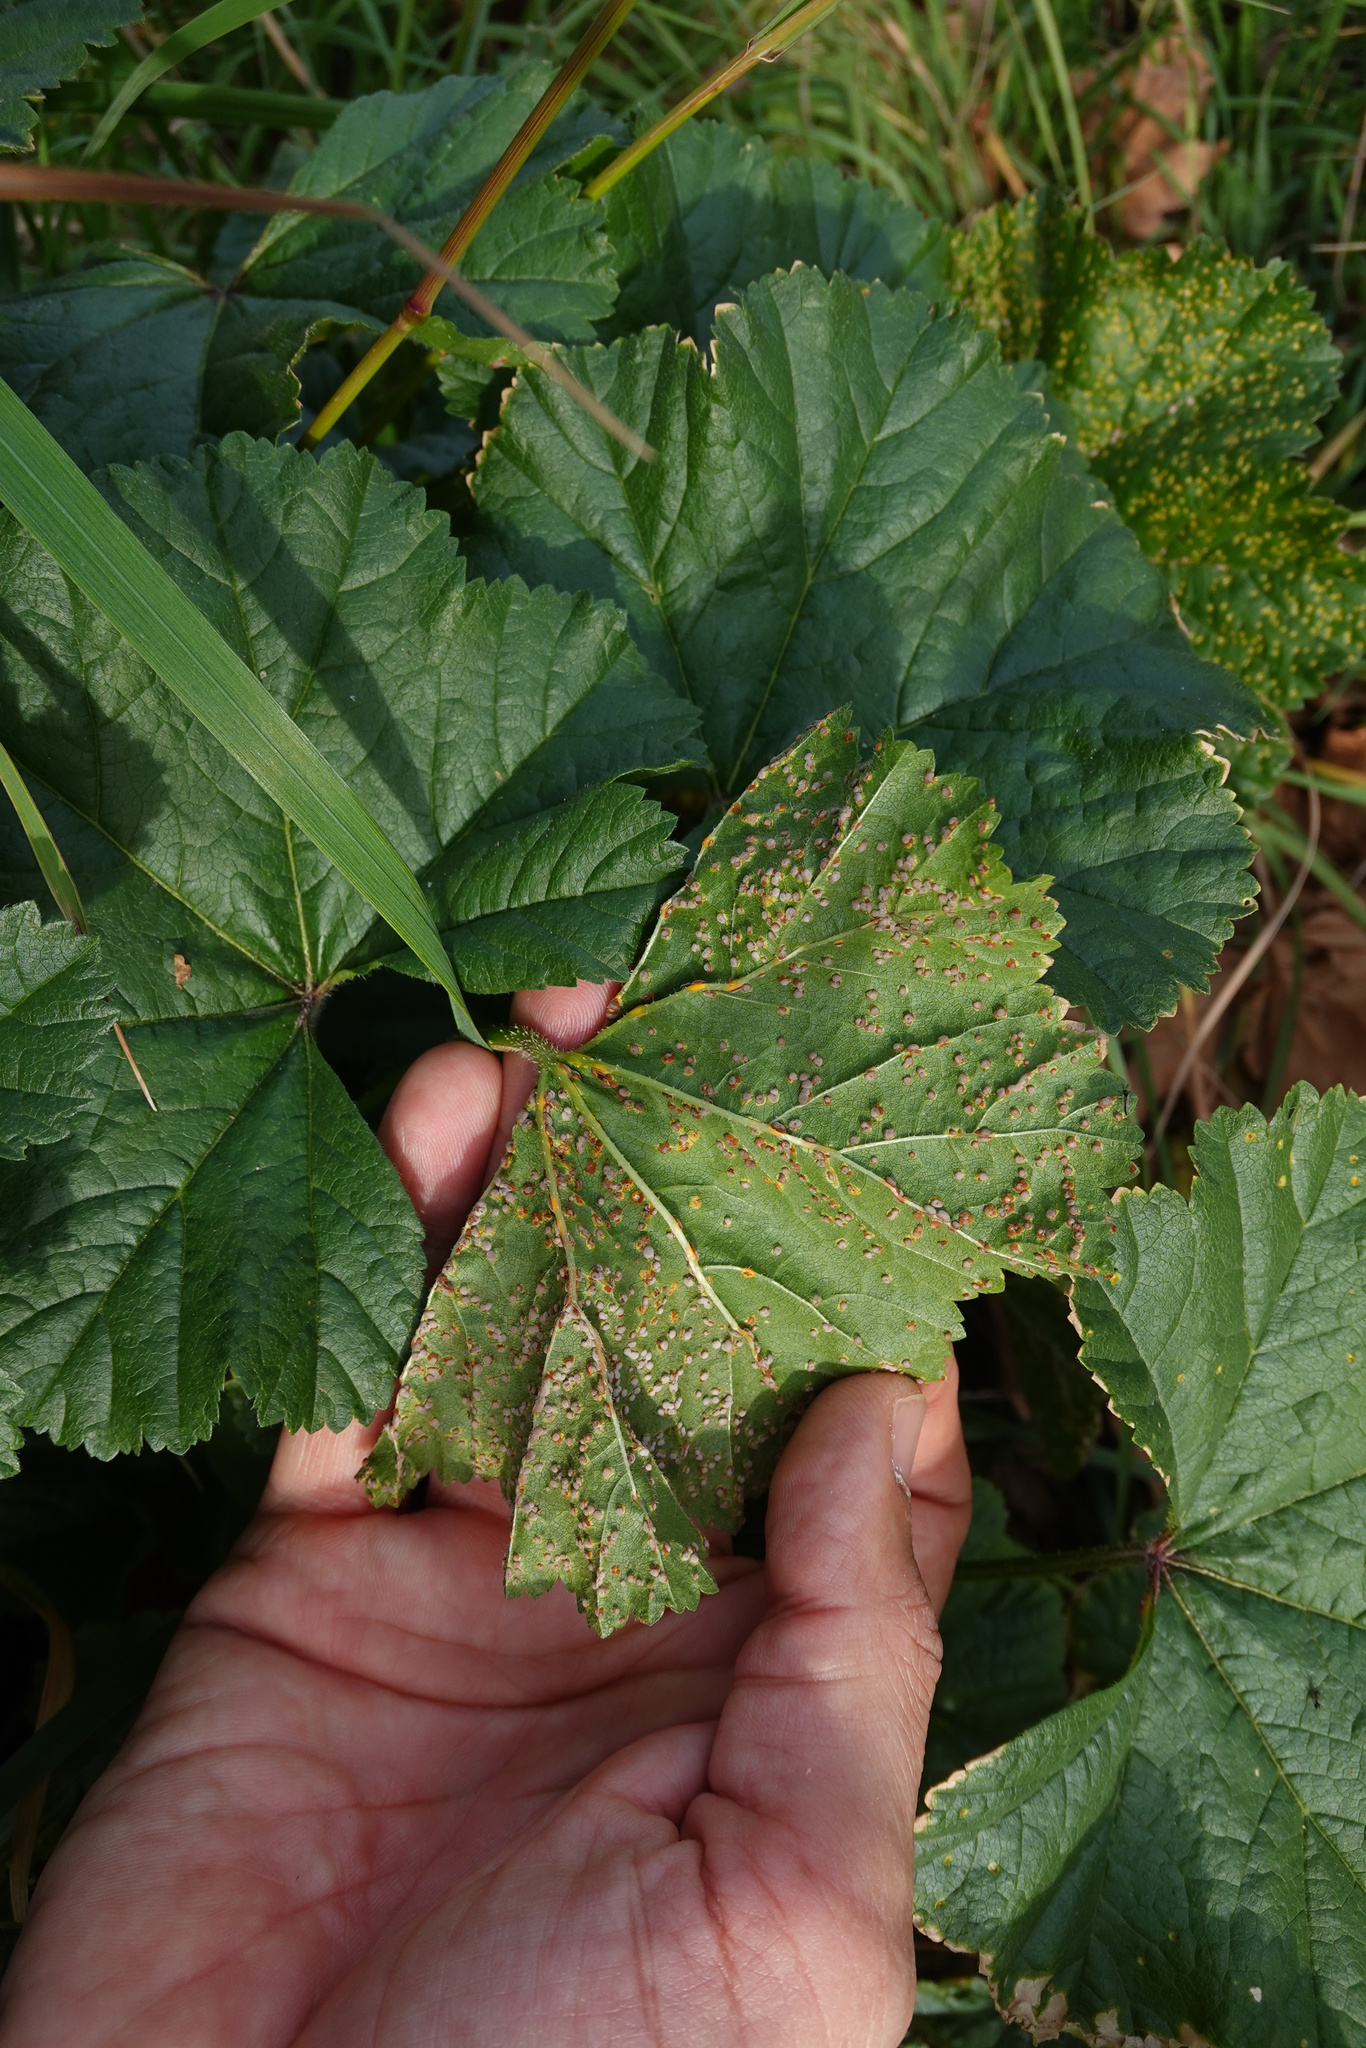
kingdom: Fungi
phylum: Basidiomycota
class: Pucciniomycetes
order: Pucciniales
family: Pucciniaceae
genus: Puccinia
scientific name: Puccinia malvacearum
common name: Hollyhock rust
